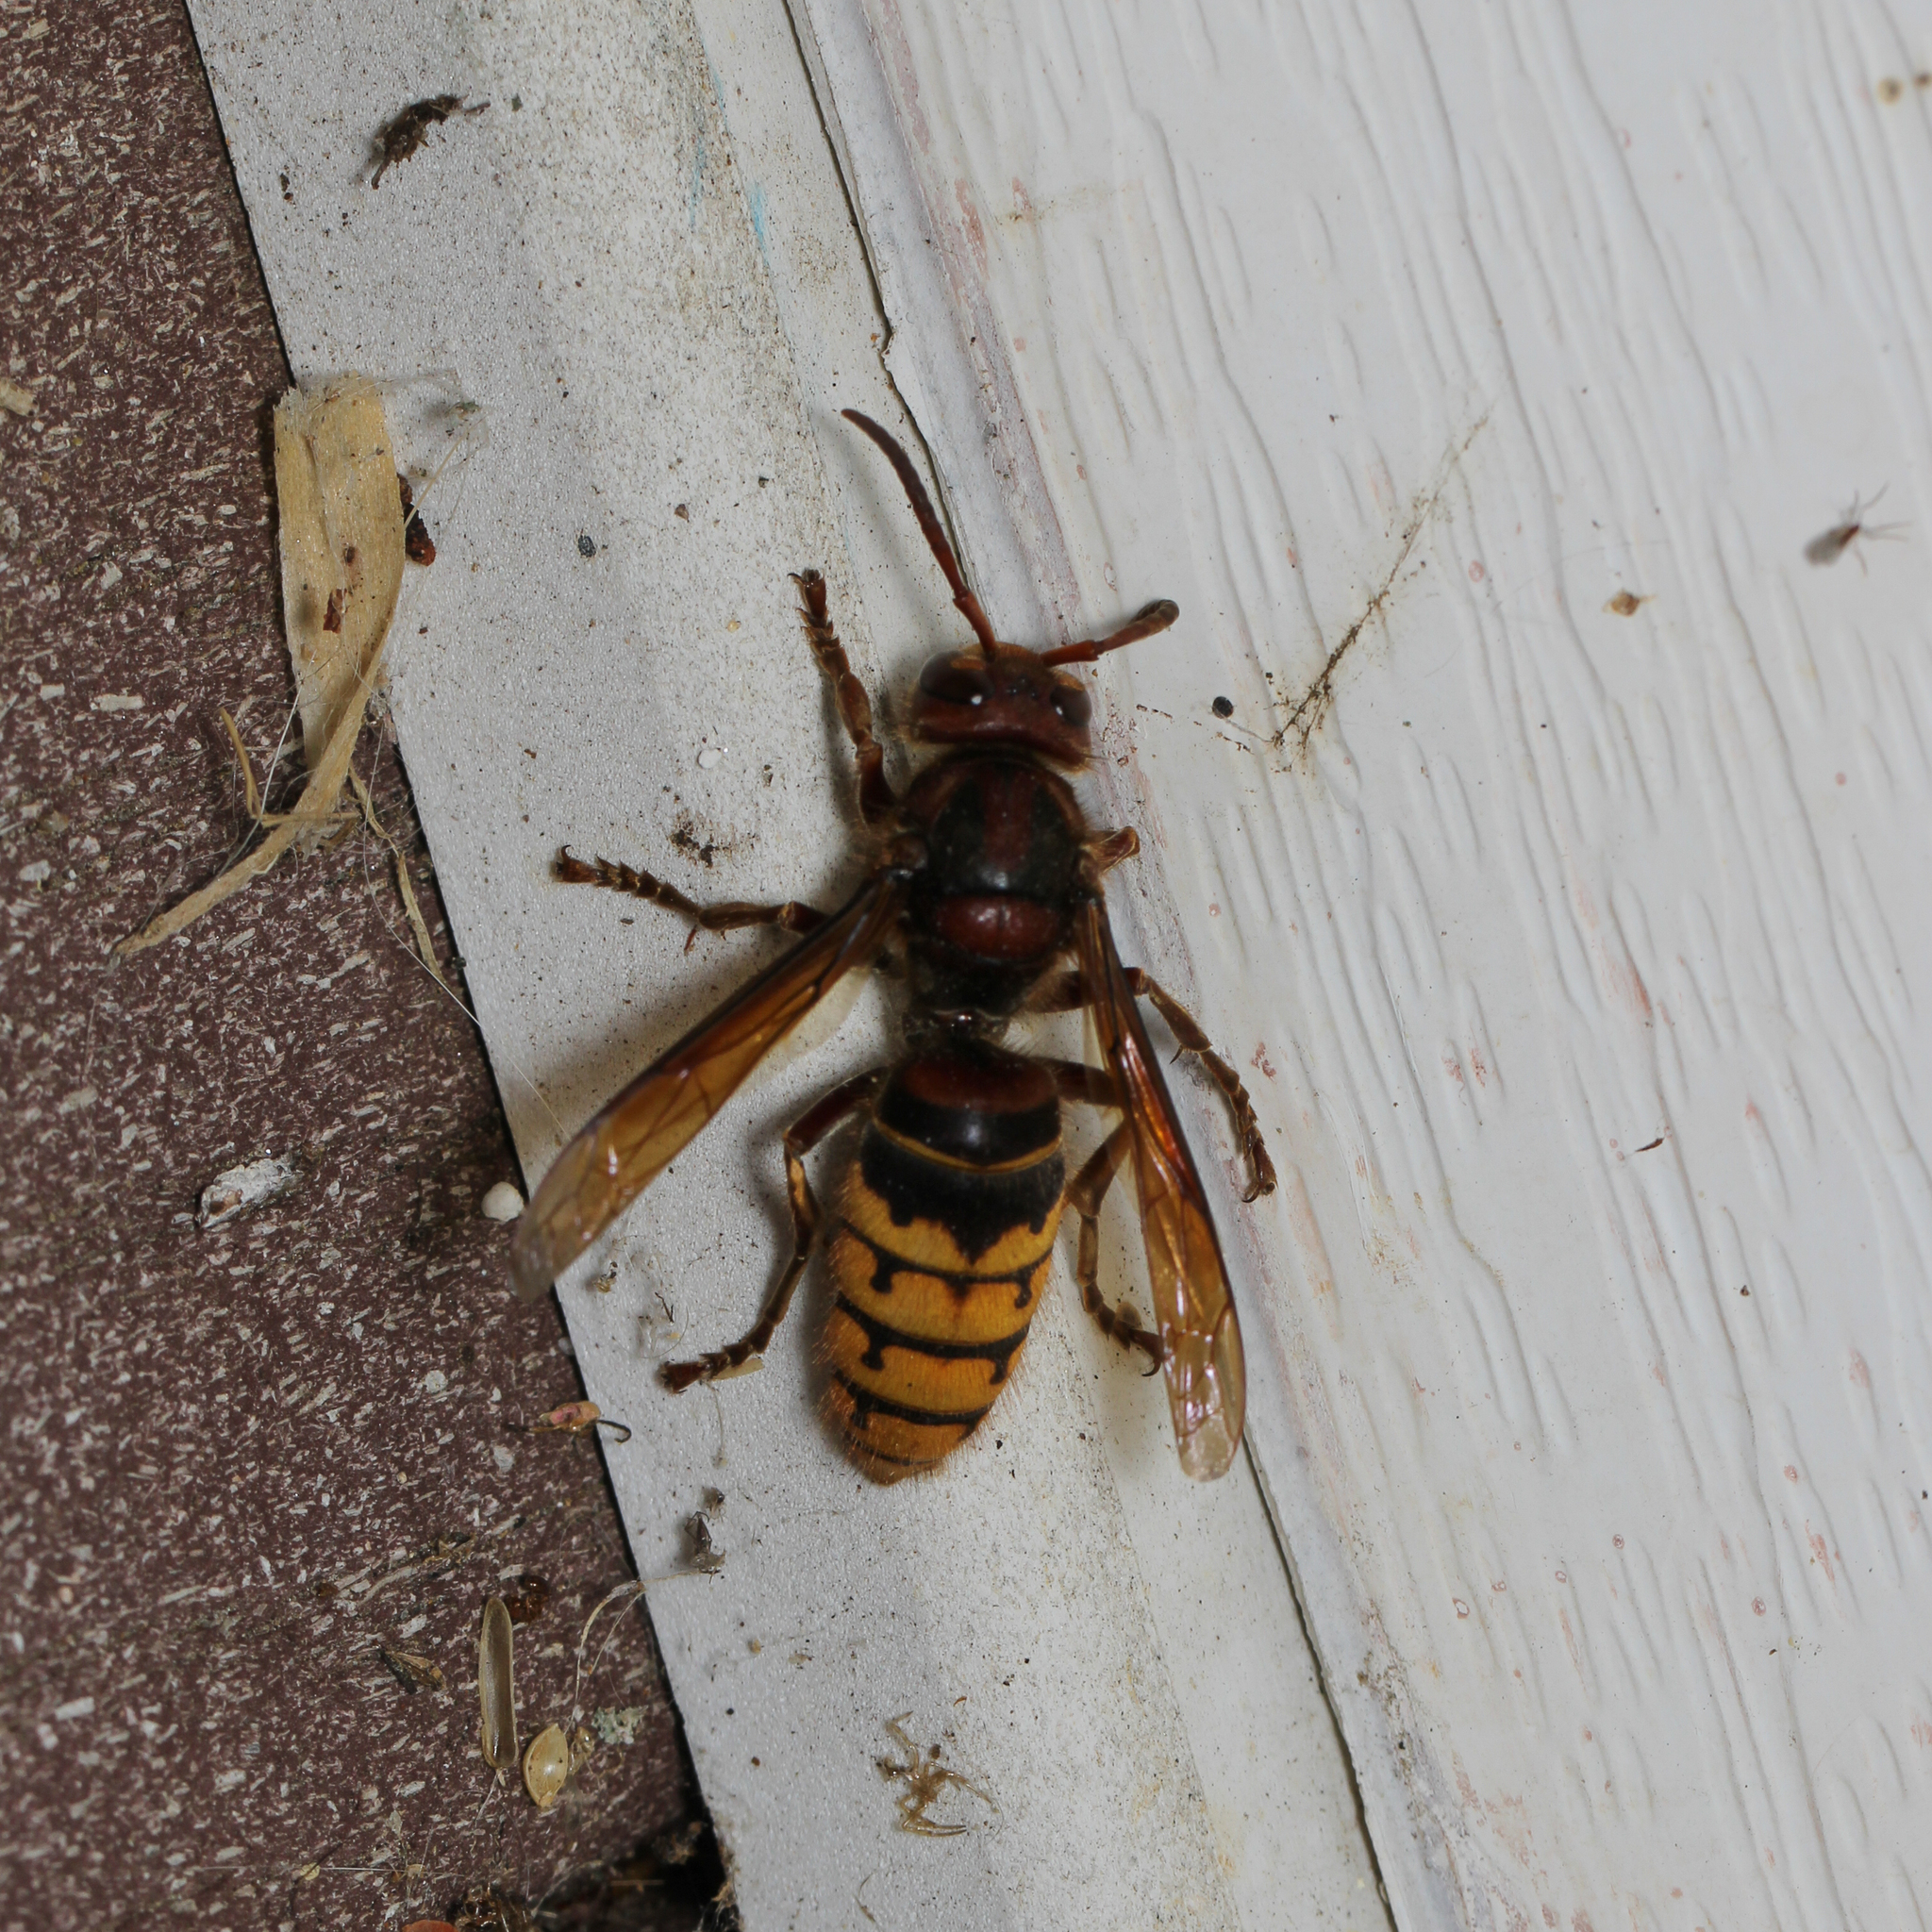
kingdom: Animalia
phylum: Arthropoda
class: Insecta
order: Hymenoptera
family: Vespidae
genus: Vespa
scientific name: Vespa crabro
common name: Hornet
